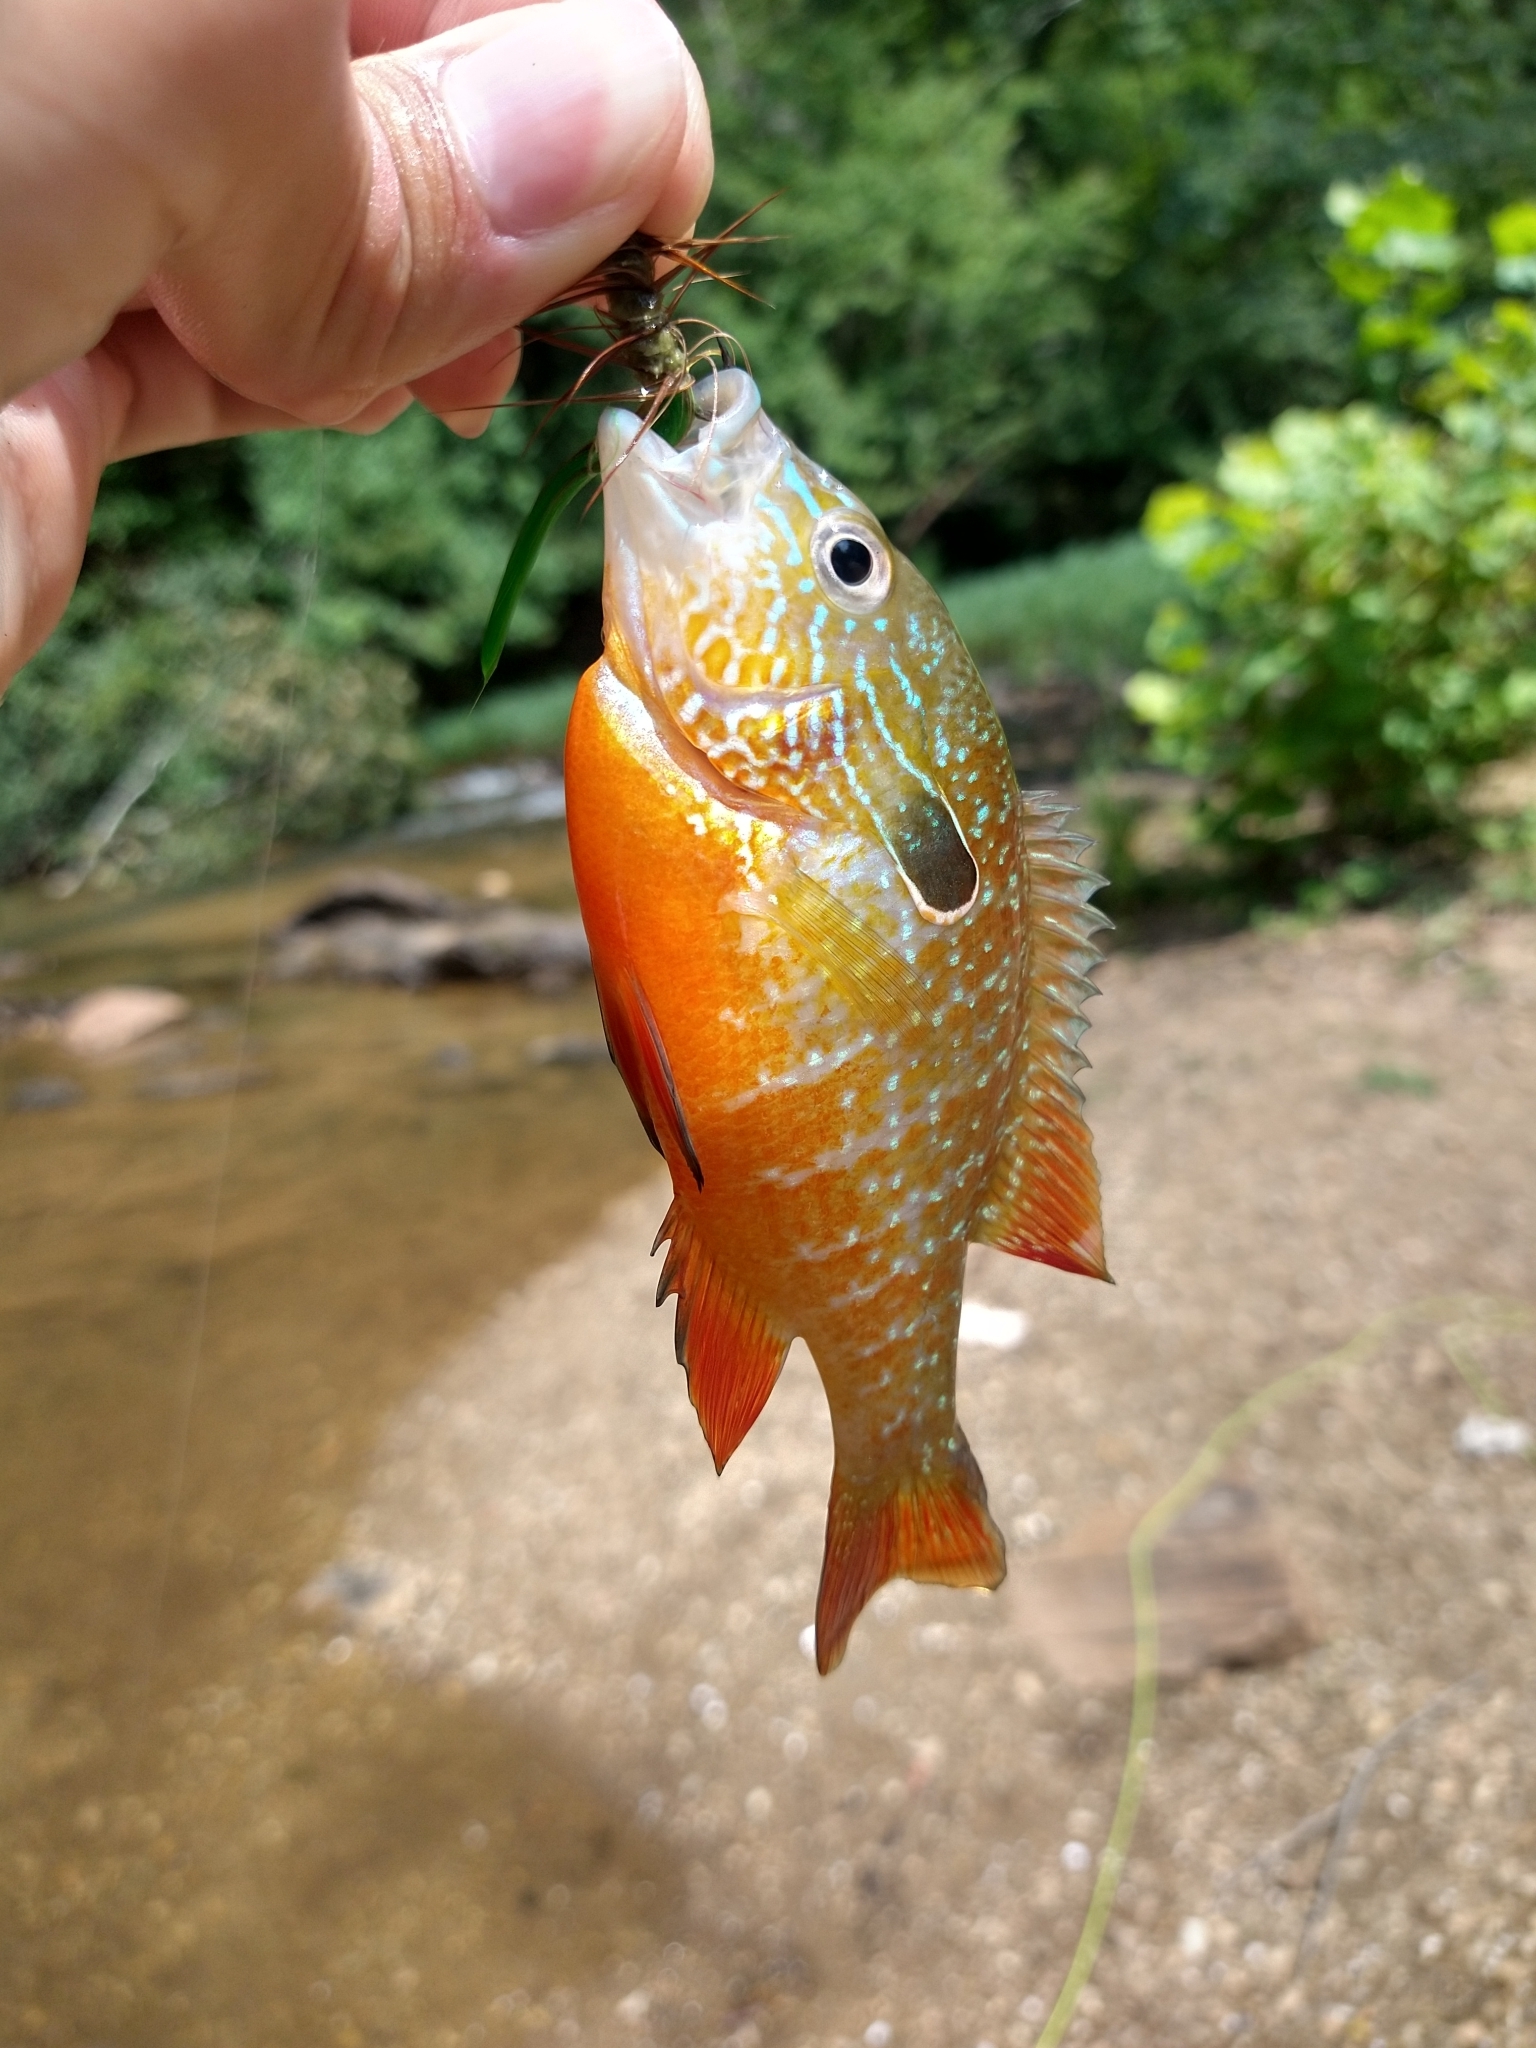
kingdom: Animalia
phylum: Chordata
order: Perciformes
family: Centrarchidae
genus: Lepomis
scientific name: Lepomis megalotis
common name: Longear sunfish
